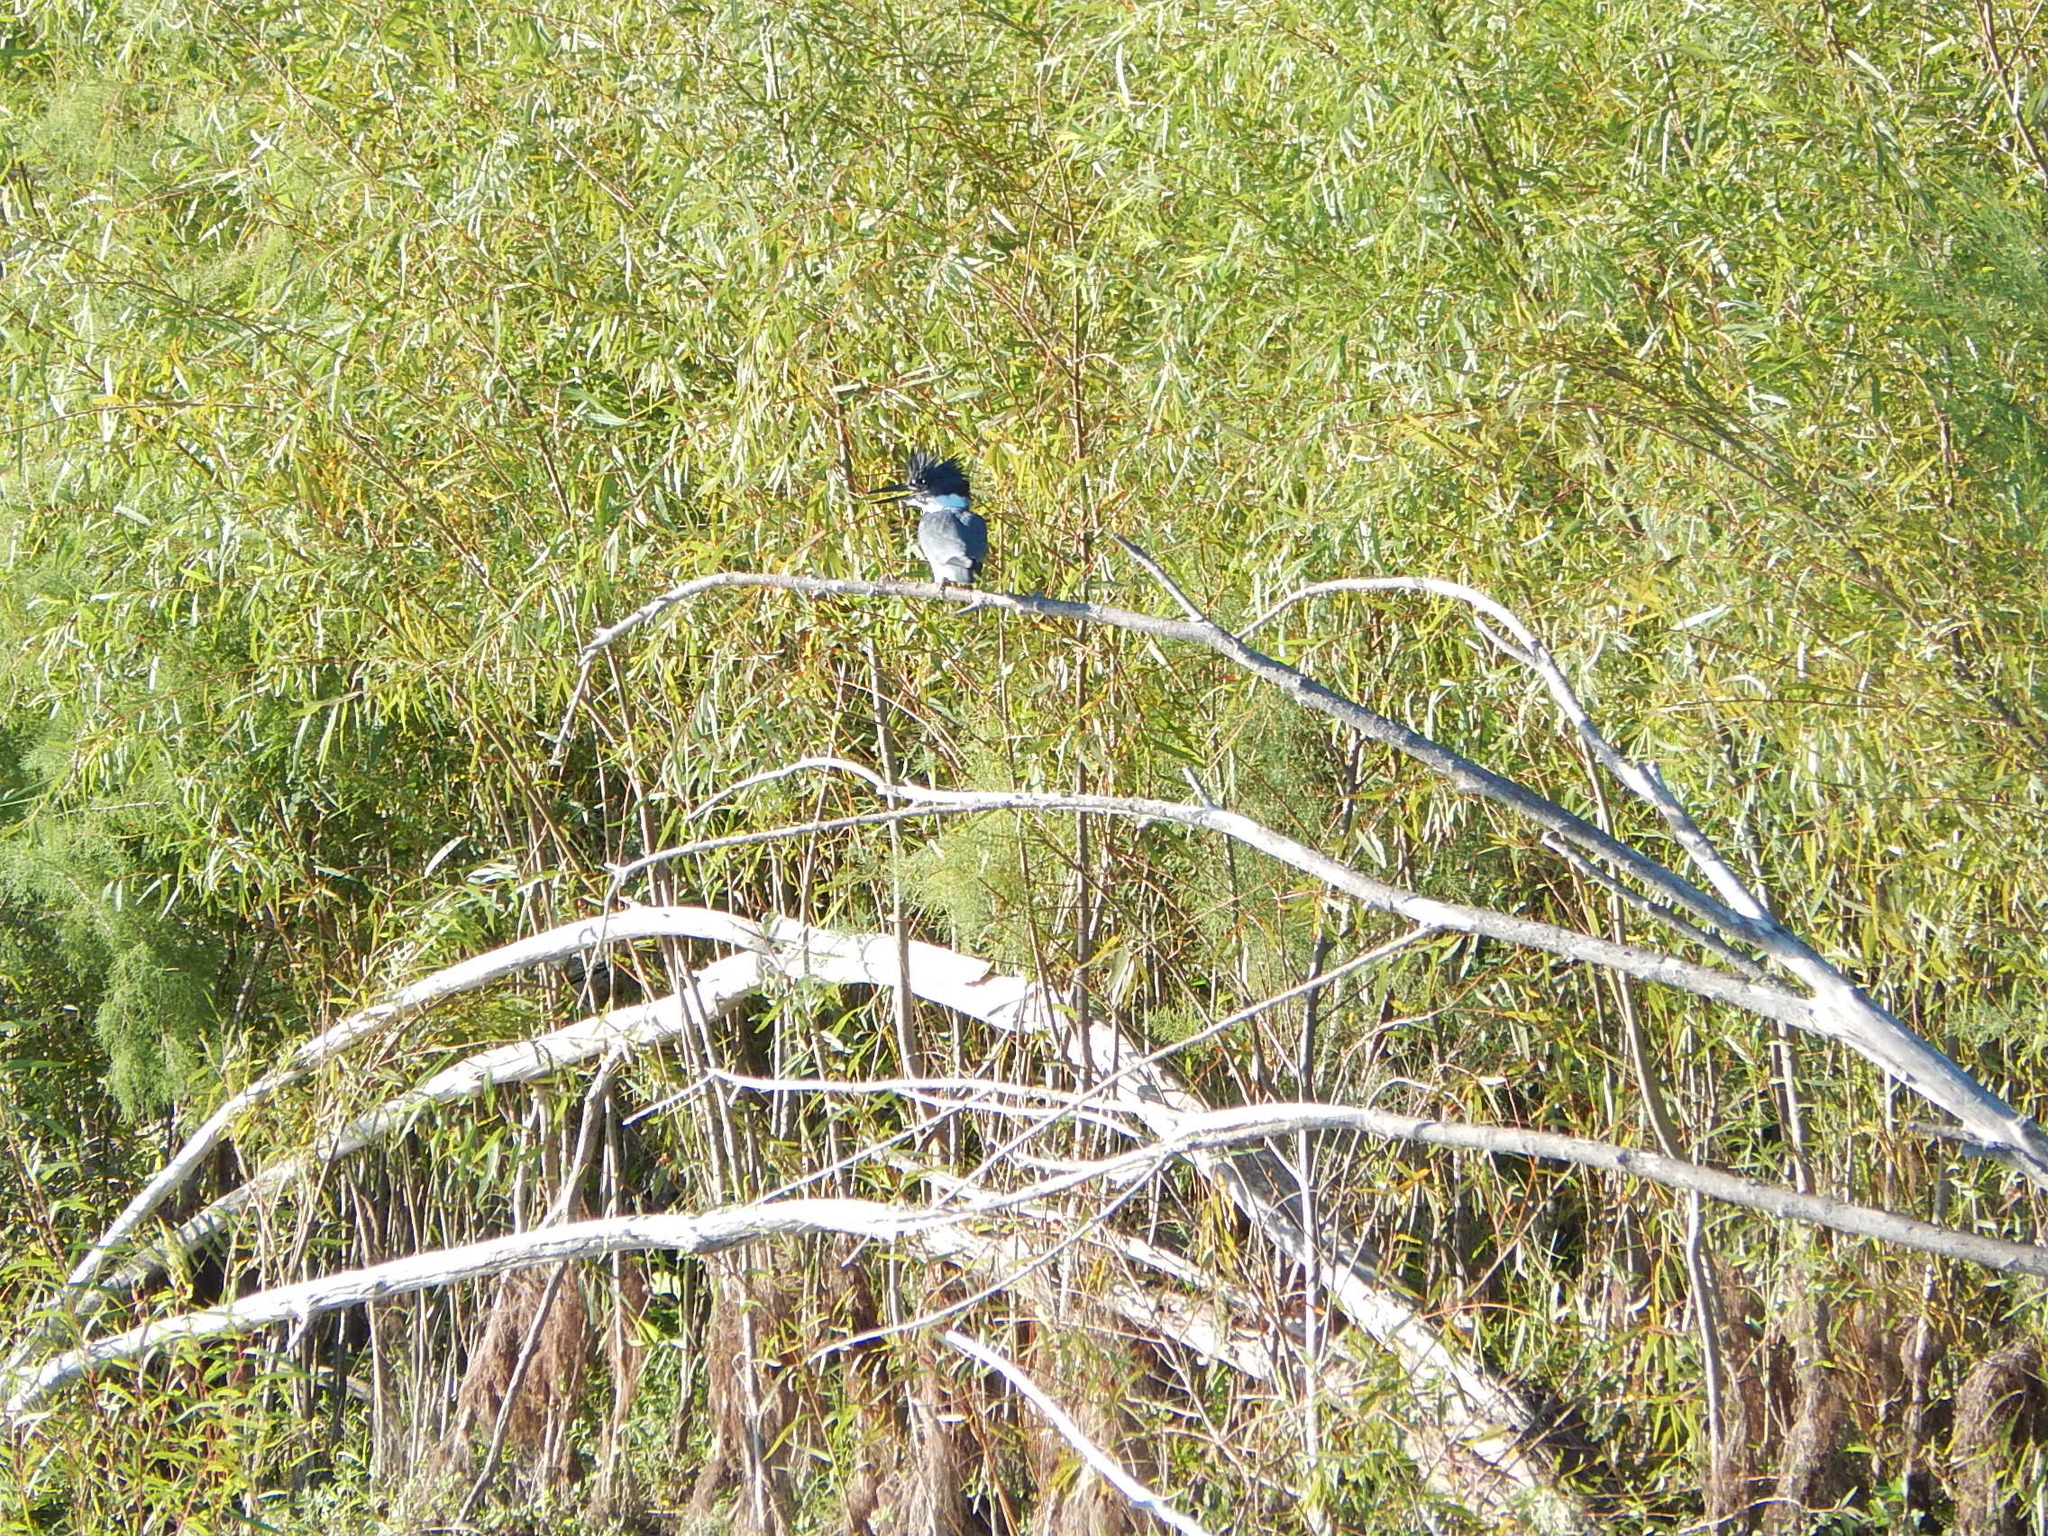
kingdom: Animalia
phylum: Chordata
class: Aves
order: Coraciiformes
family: Alcedinidae
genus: Megaceryle
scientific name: Megaceryle alcyon
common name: Belted kingfisher
